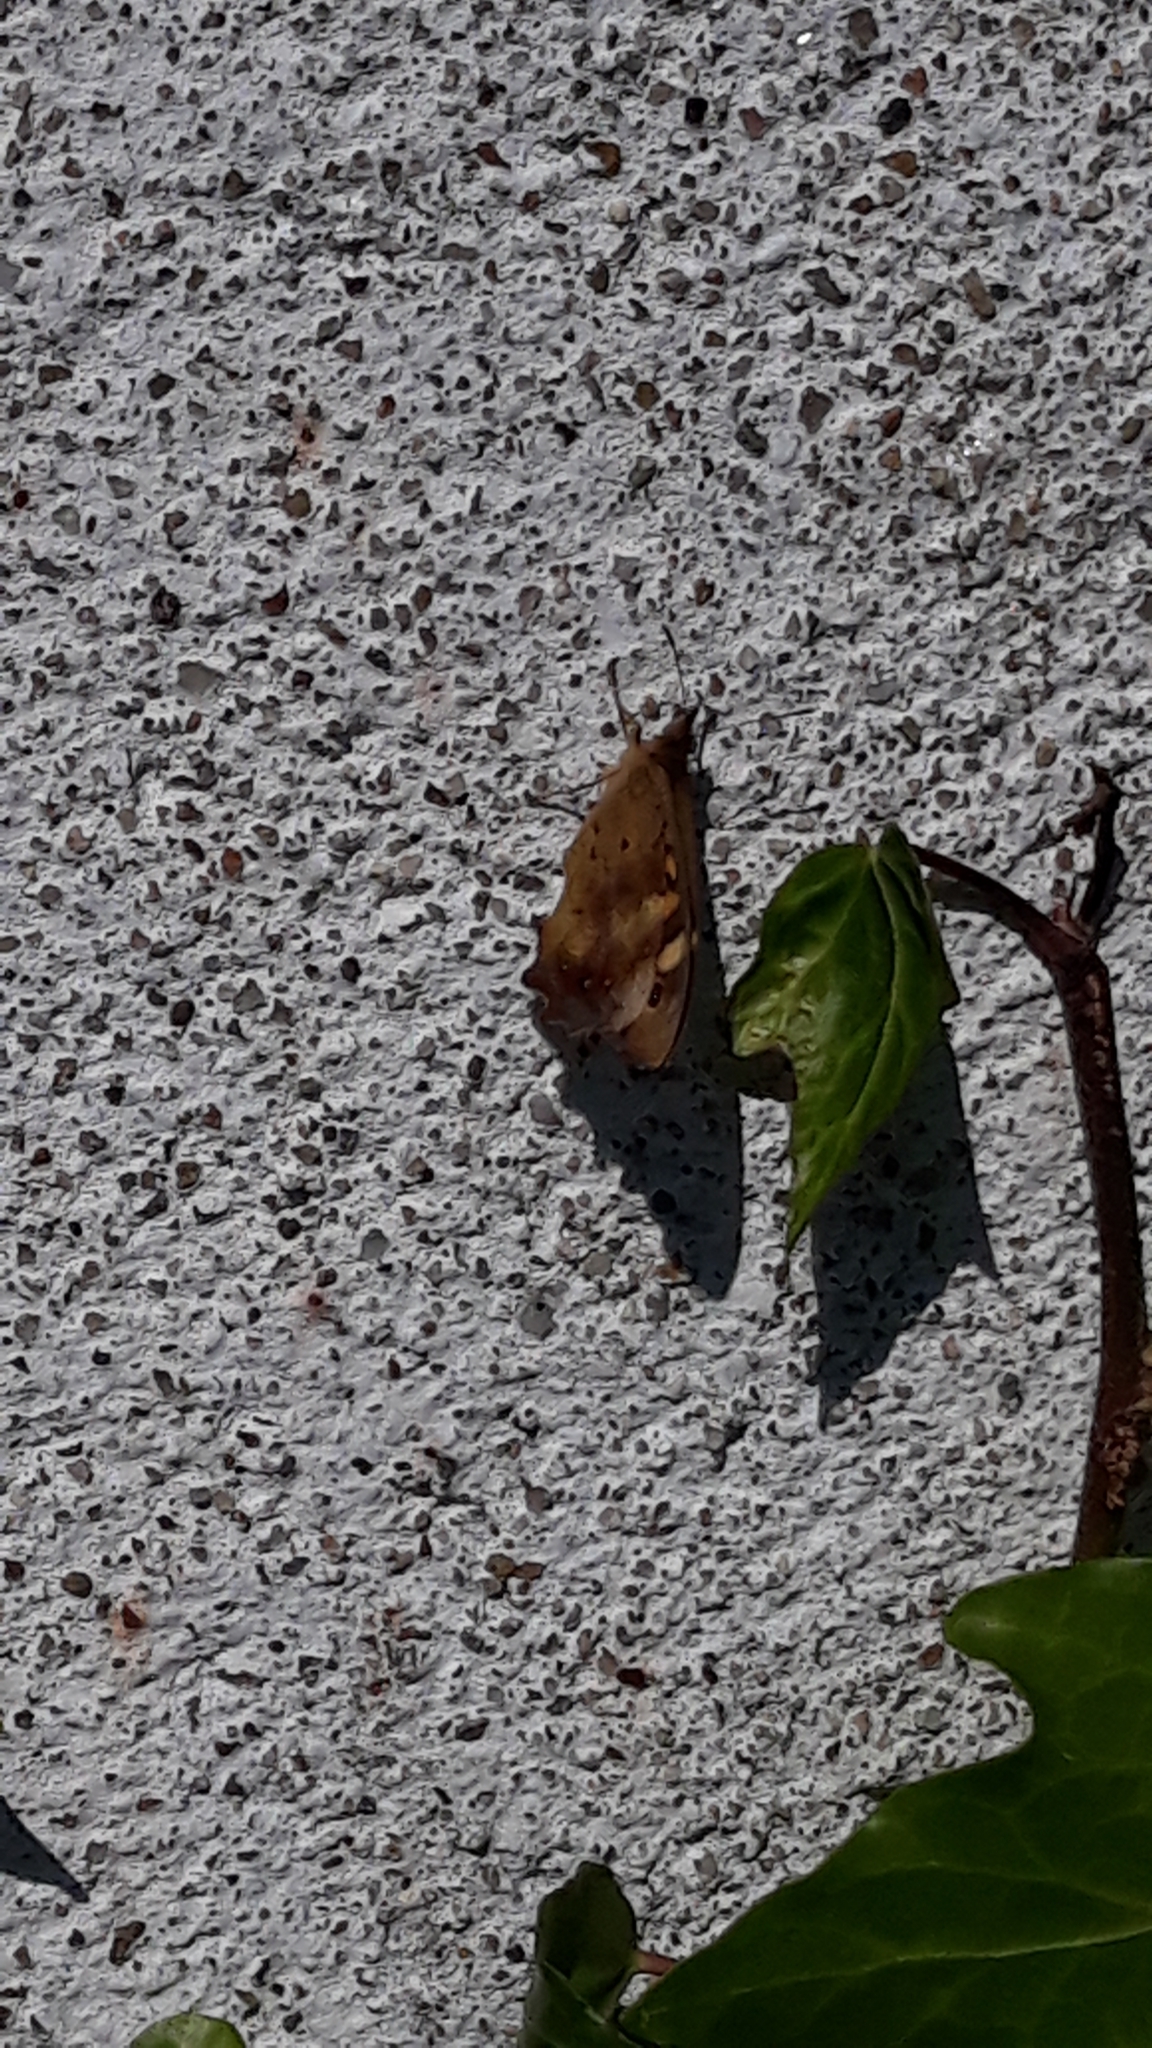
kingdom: Animalia
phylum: Arthropoda
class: Insecta
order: Lepidoptera
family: Nymphalidae
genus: Pararge
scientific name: Pararge aegeria
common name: Speckled wood
